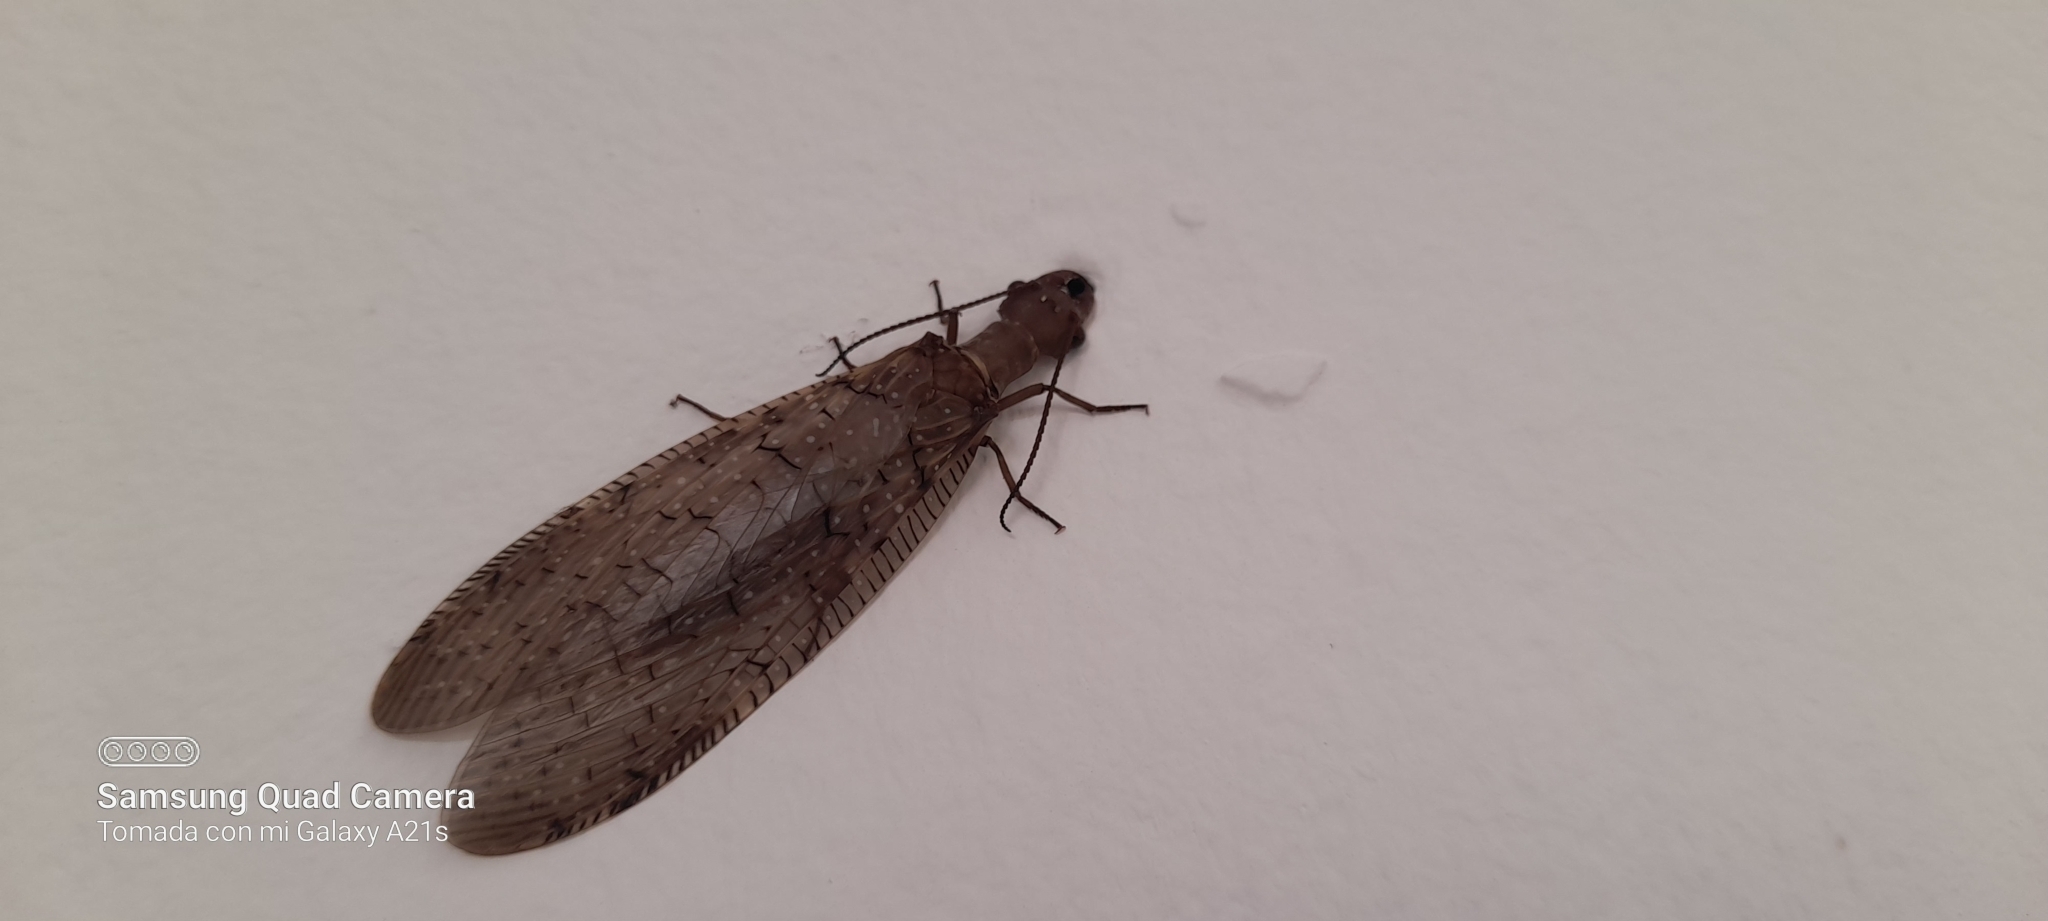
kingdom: Animalia
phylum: Arthropoda
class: Insecta
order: Megaloptera
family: Corydalidae
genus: Corydalus
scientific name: Corydalus luteus
